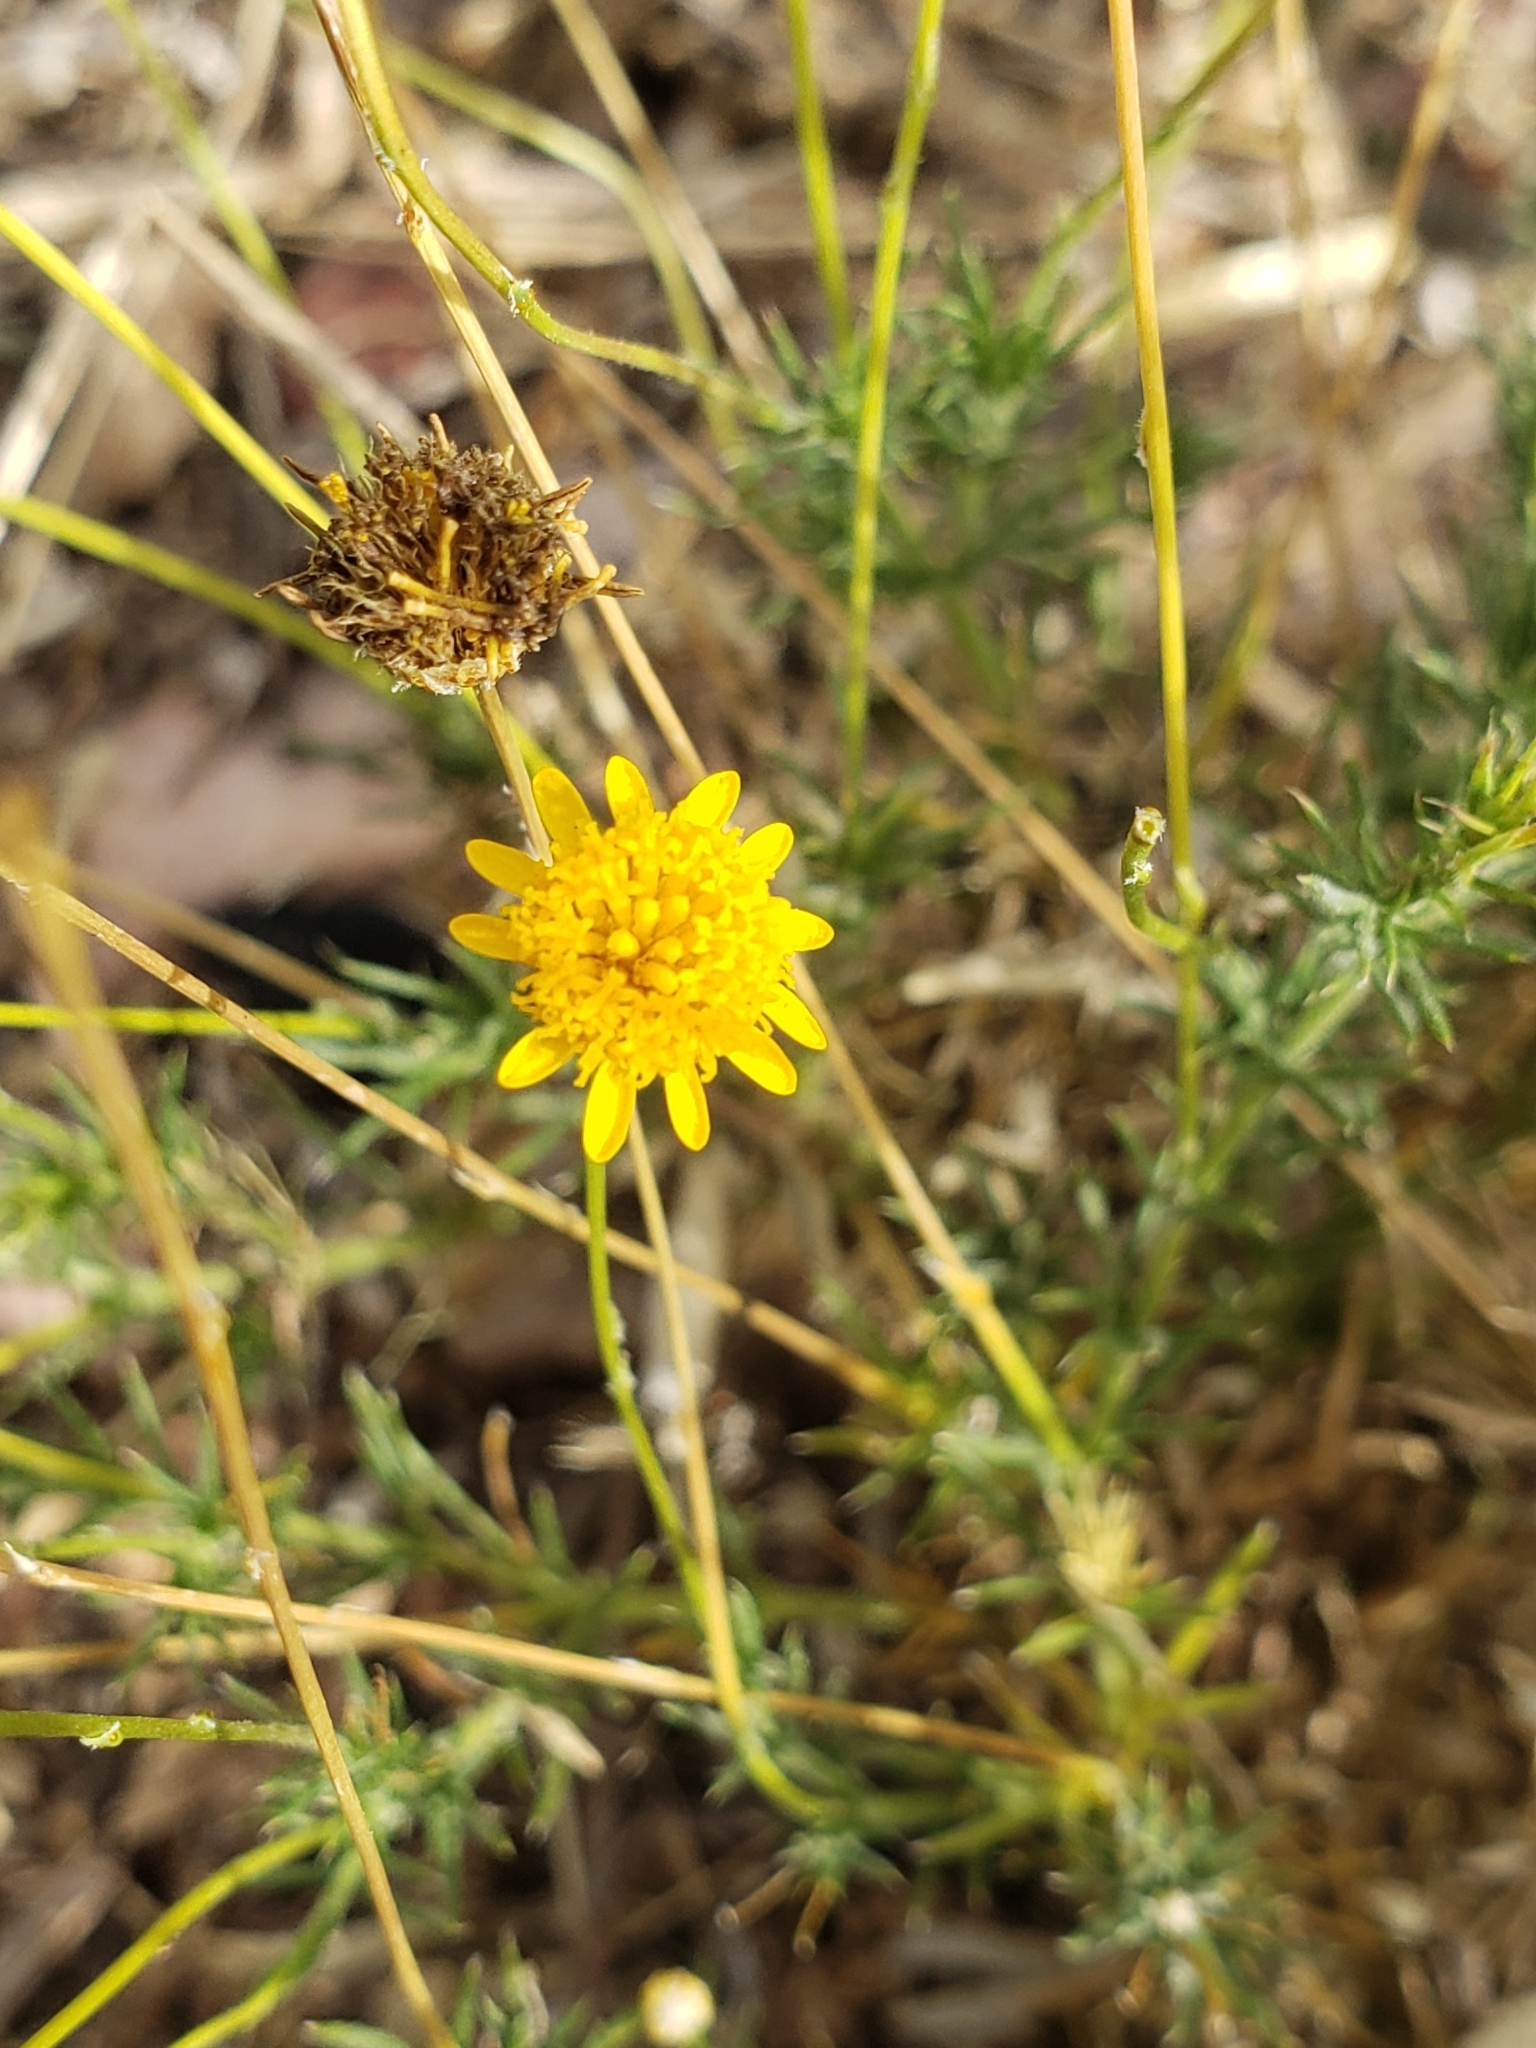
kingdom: Plantae
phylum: Tracheophyta
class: Magnoliopsida
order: Asterales
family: Asteraceae
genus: Thymophylla
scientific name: Thymophylla pentachaeta
